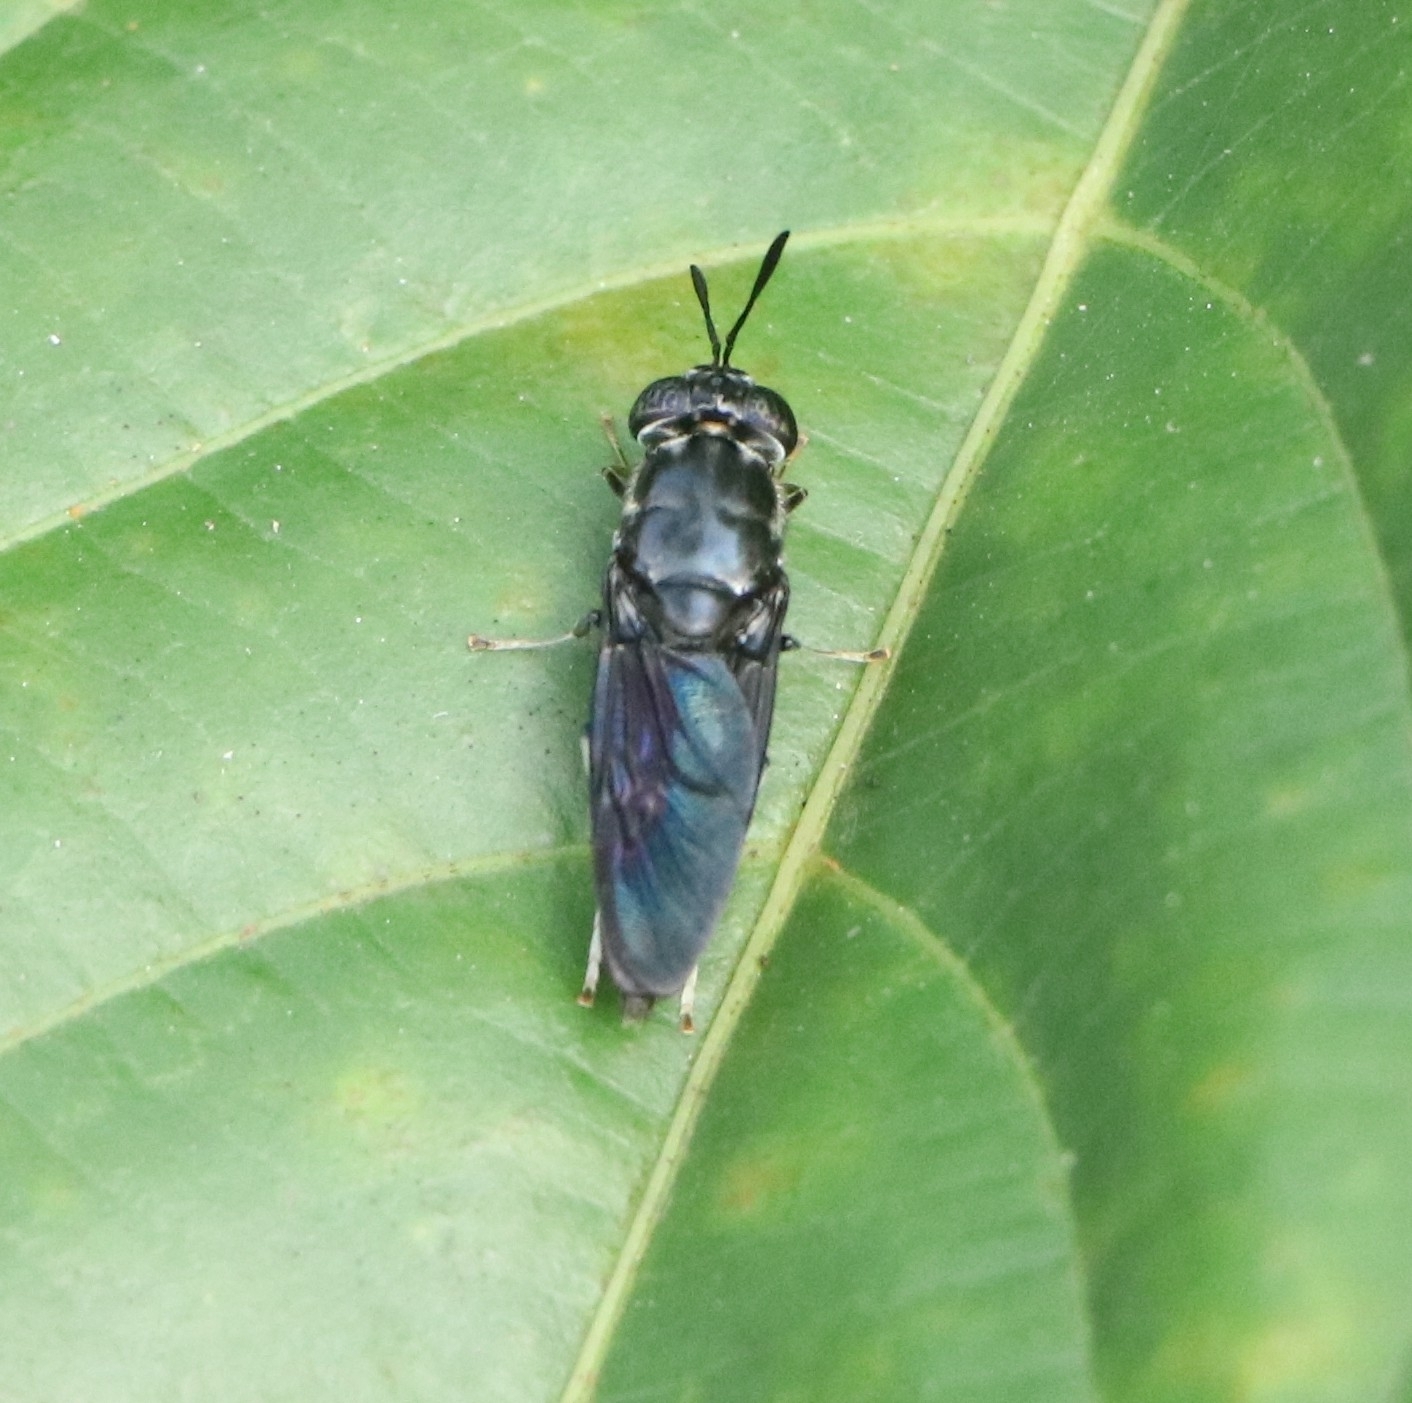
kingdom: Animalia
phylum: Arthropoda
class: Insecta
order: Diptera
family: Stratiomyidae
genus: Hermetia
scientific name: Hermetia illucens
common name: Black soldier fly
